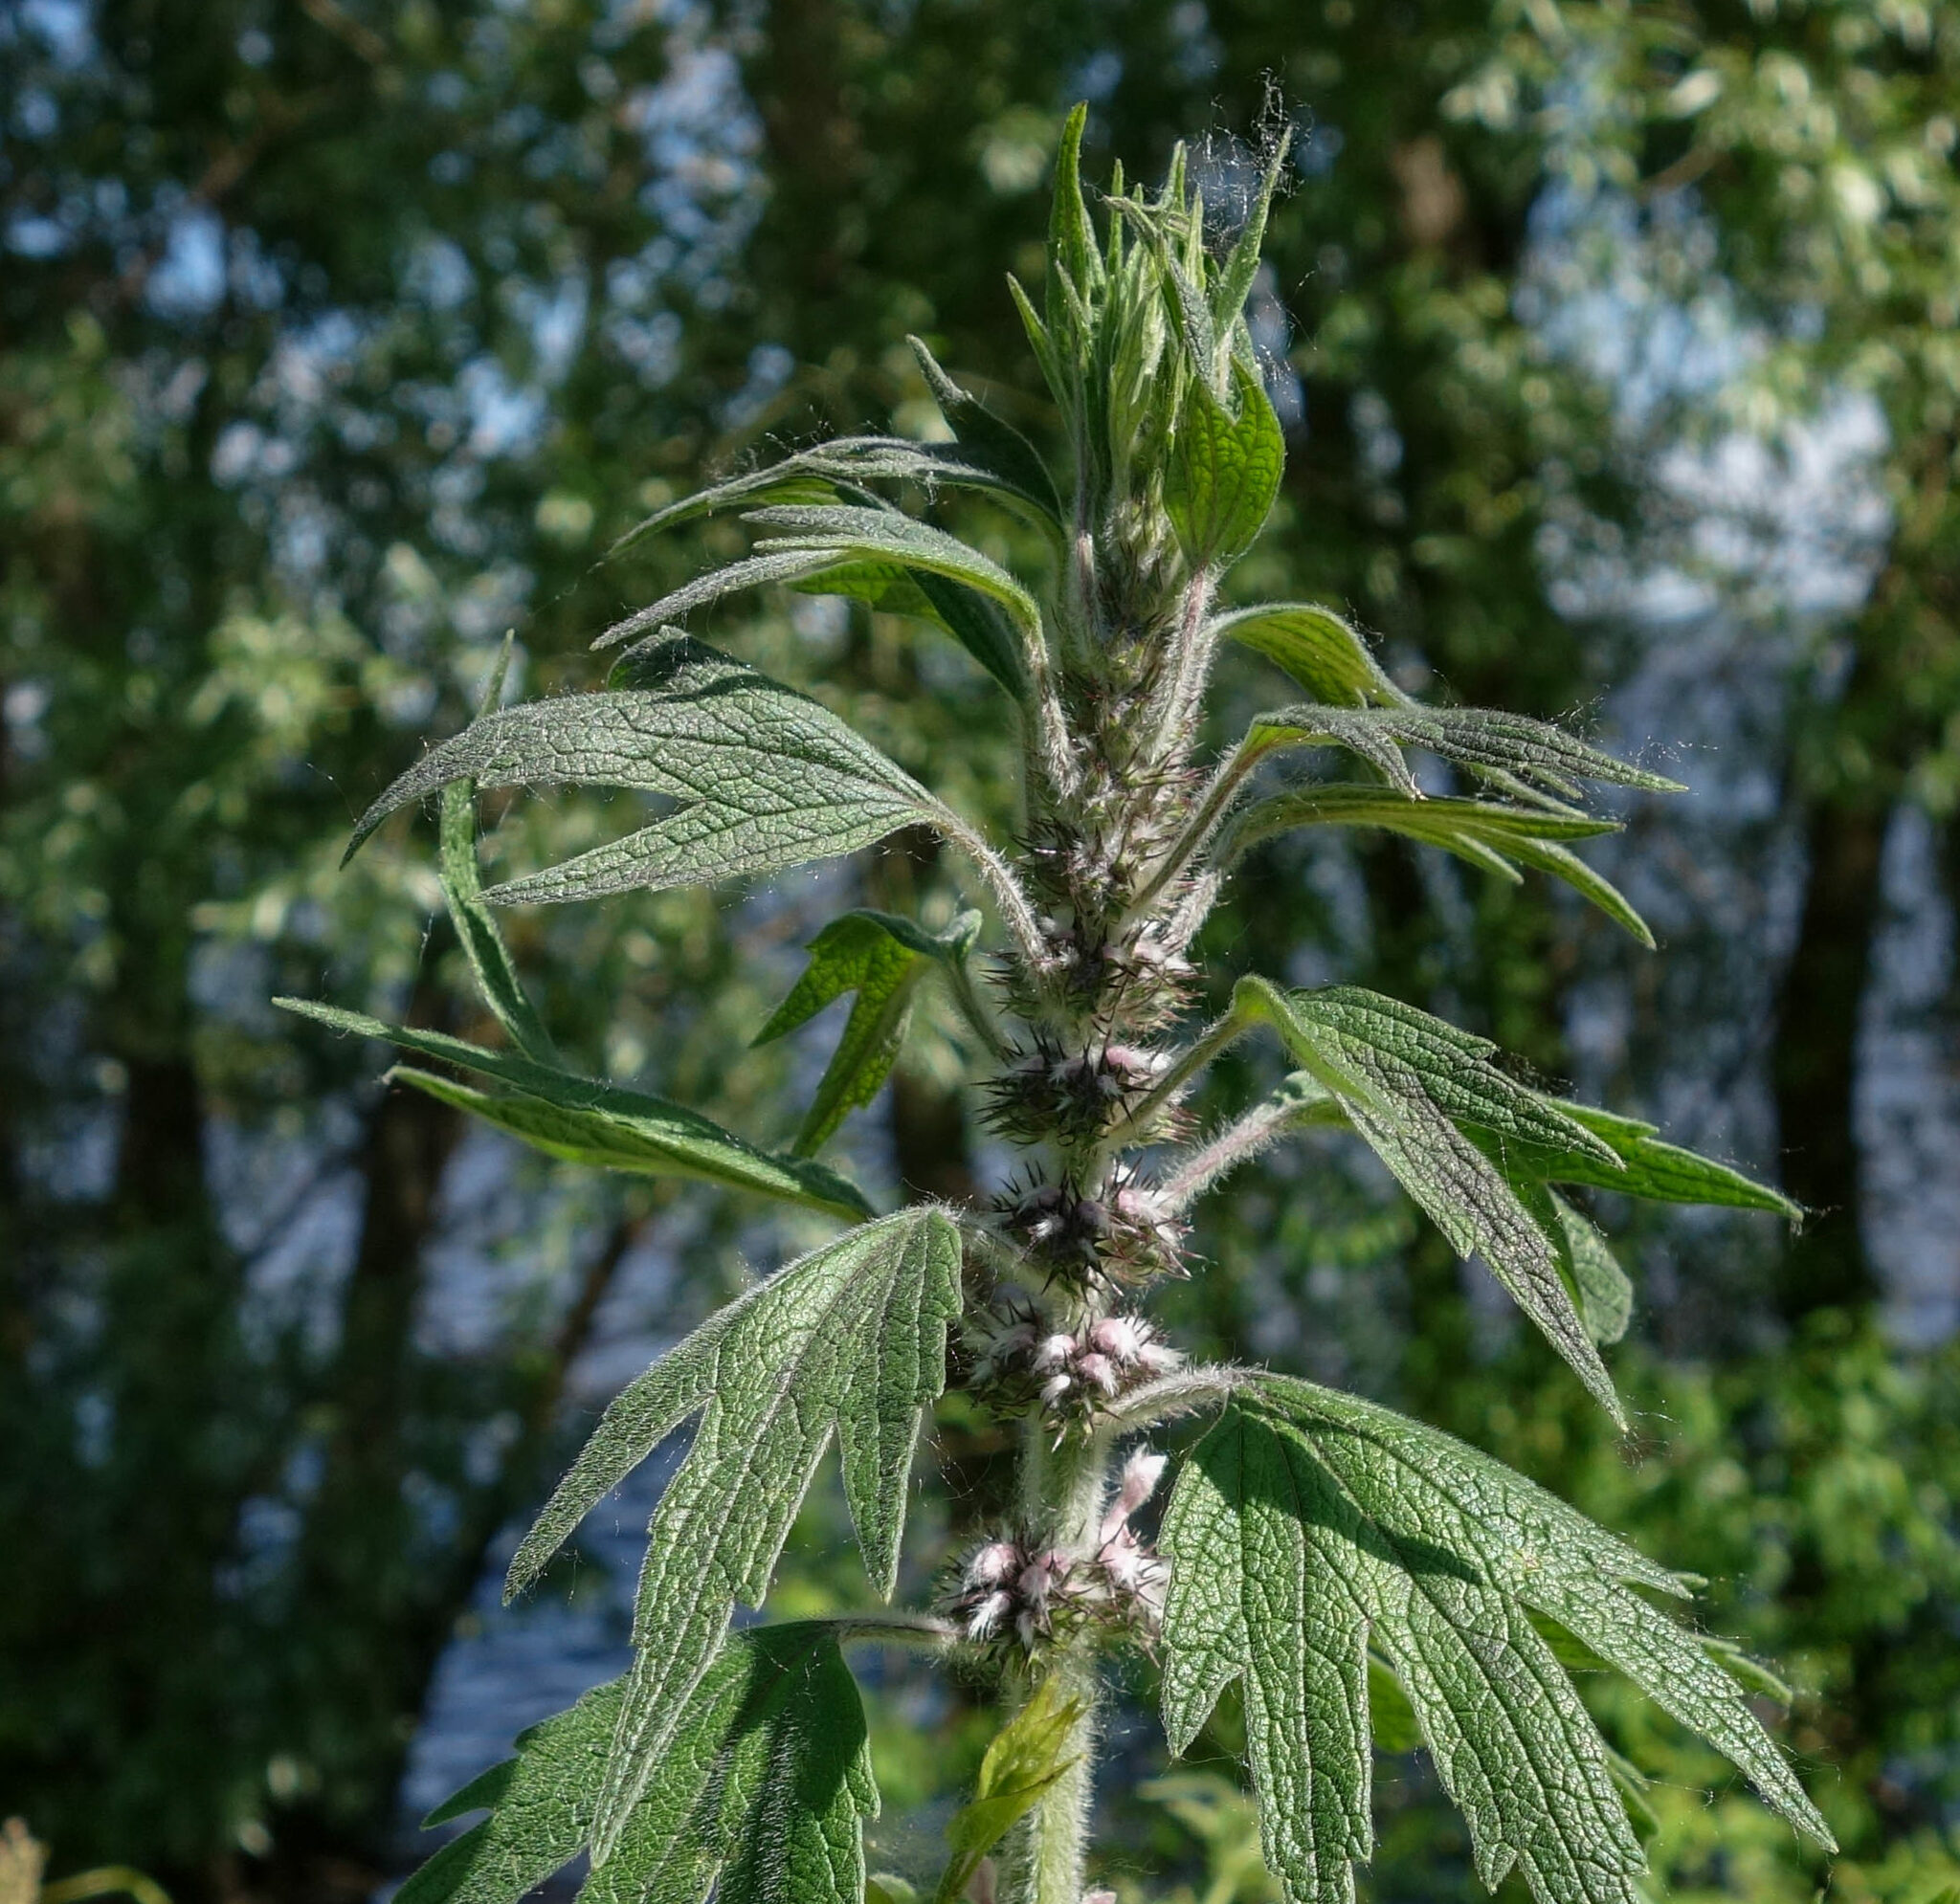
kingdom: Plantae
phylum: Tracheophyta
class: Magnoliopsida
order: Lamiales
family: Lamiaceae
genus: Leonurus
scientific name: Leonurus quinquelobatus
